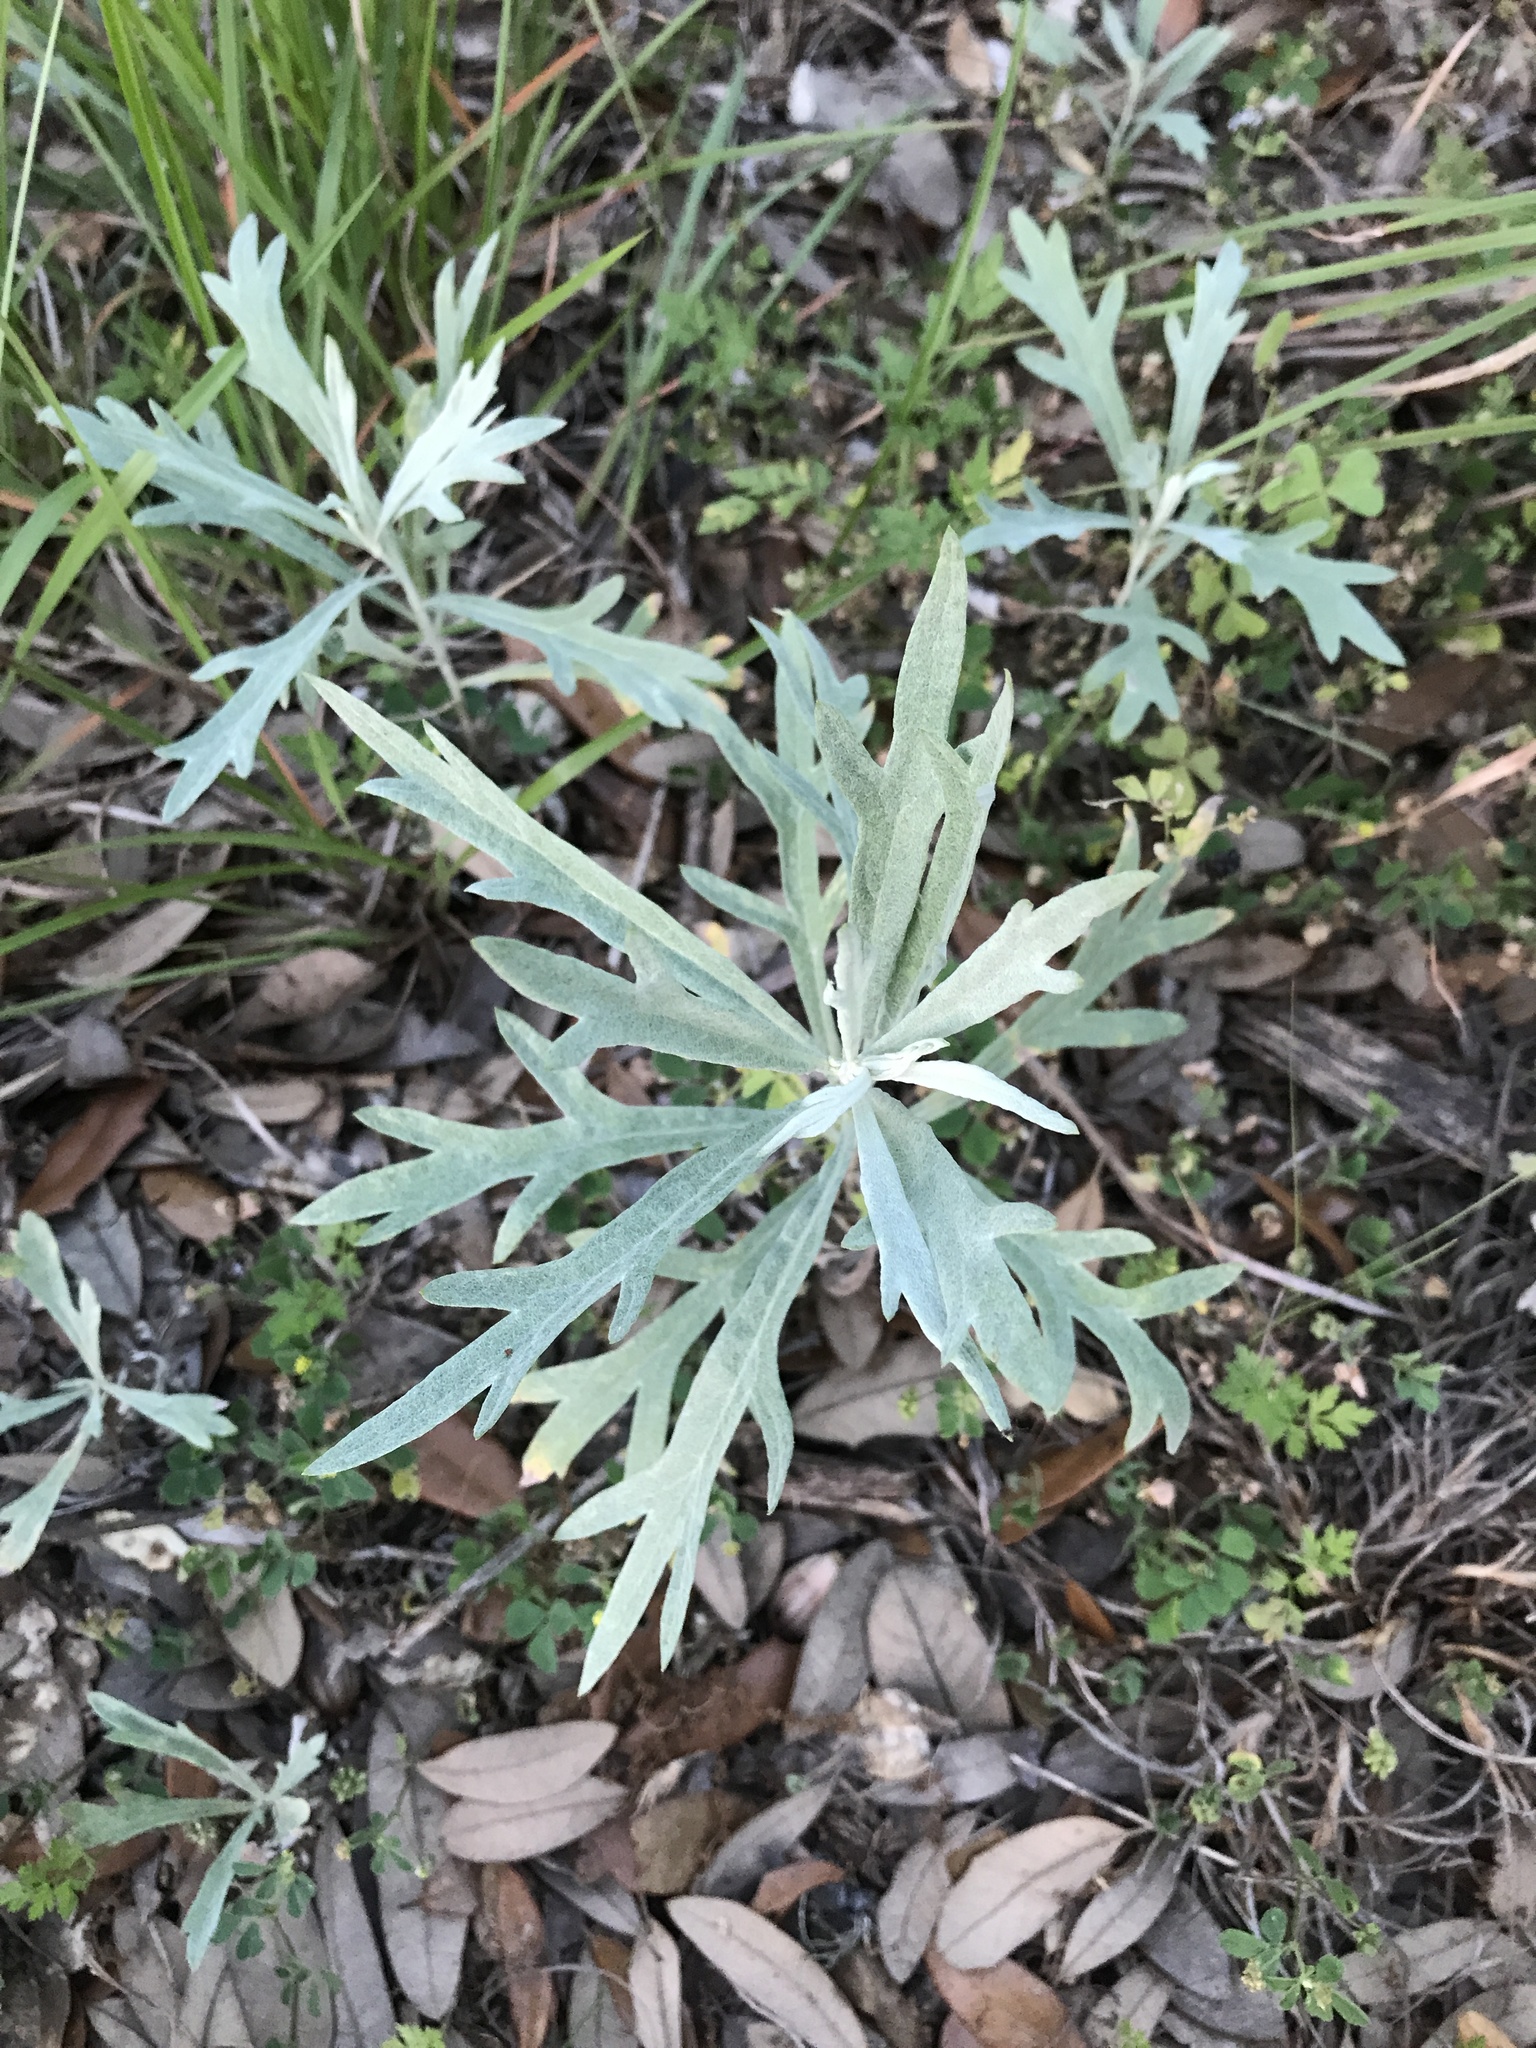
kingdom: Plantae
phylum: Tracheophyta
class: Magnoliopsida
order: Asterales
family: Asteraceae
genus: Artemisia
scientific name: Artemisia ludoviciana
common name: Western mugwort
